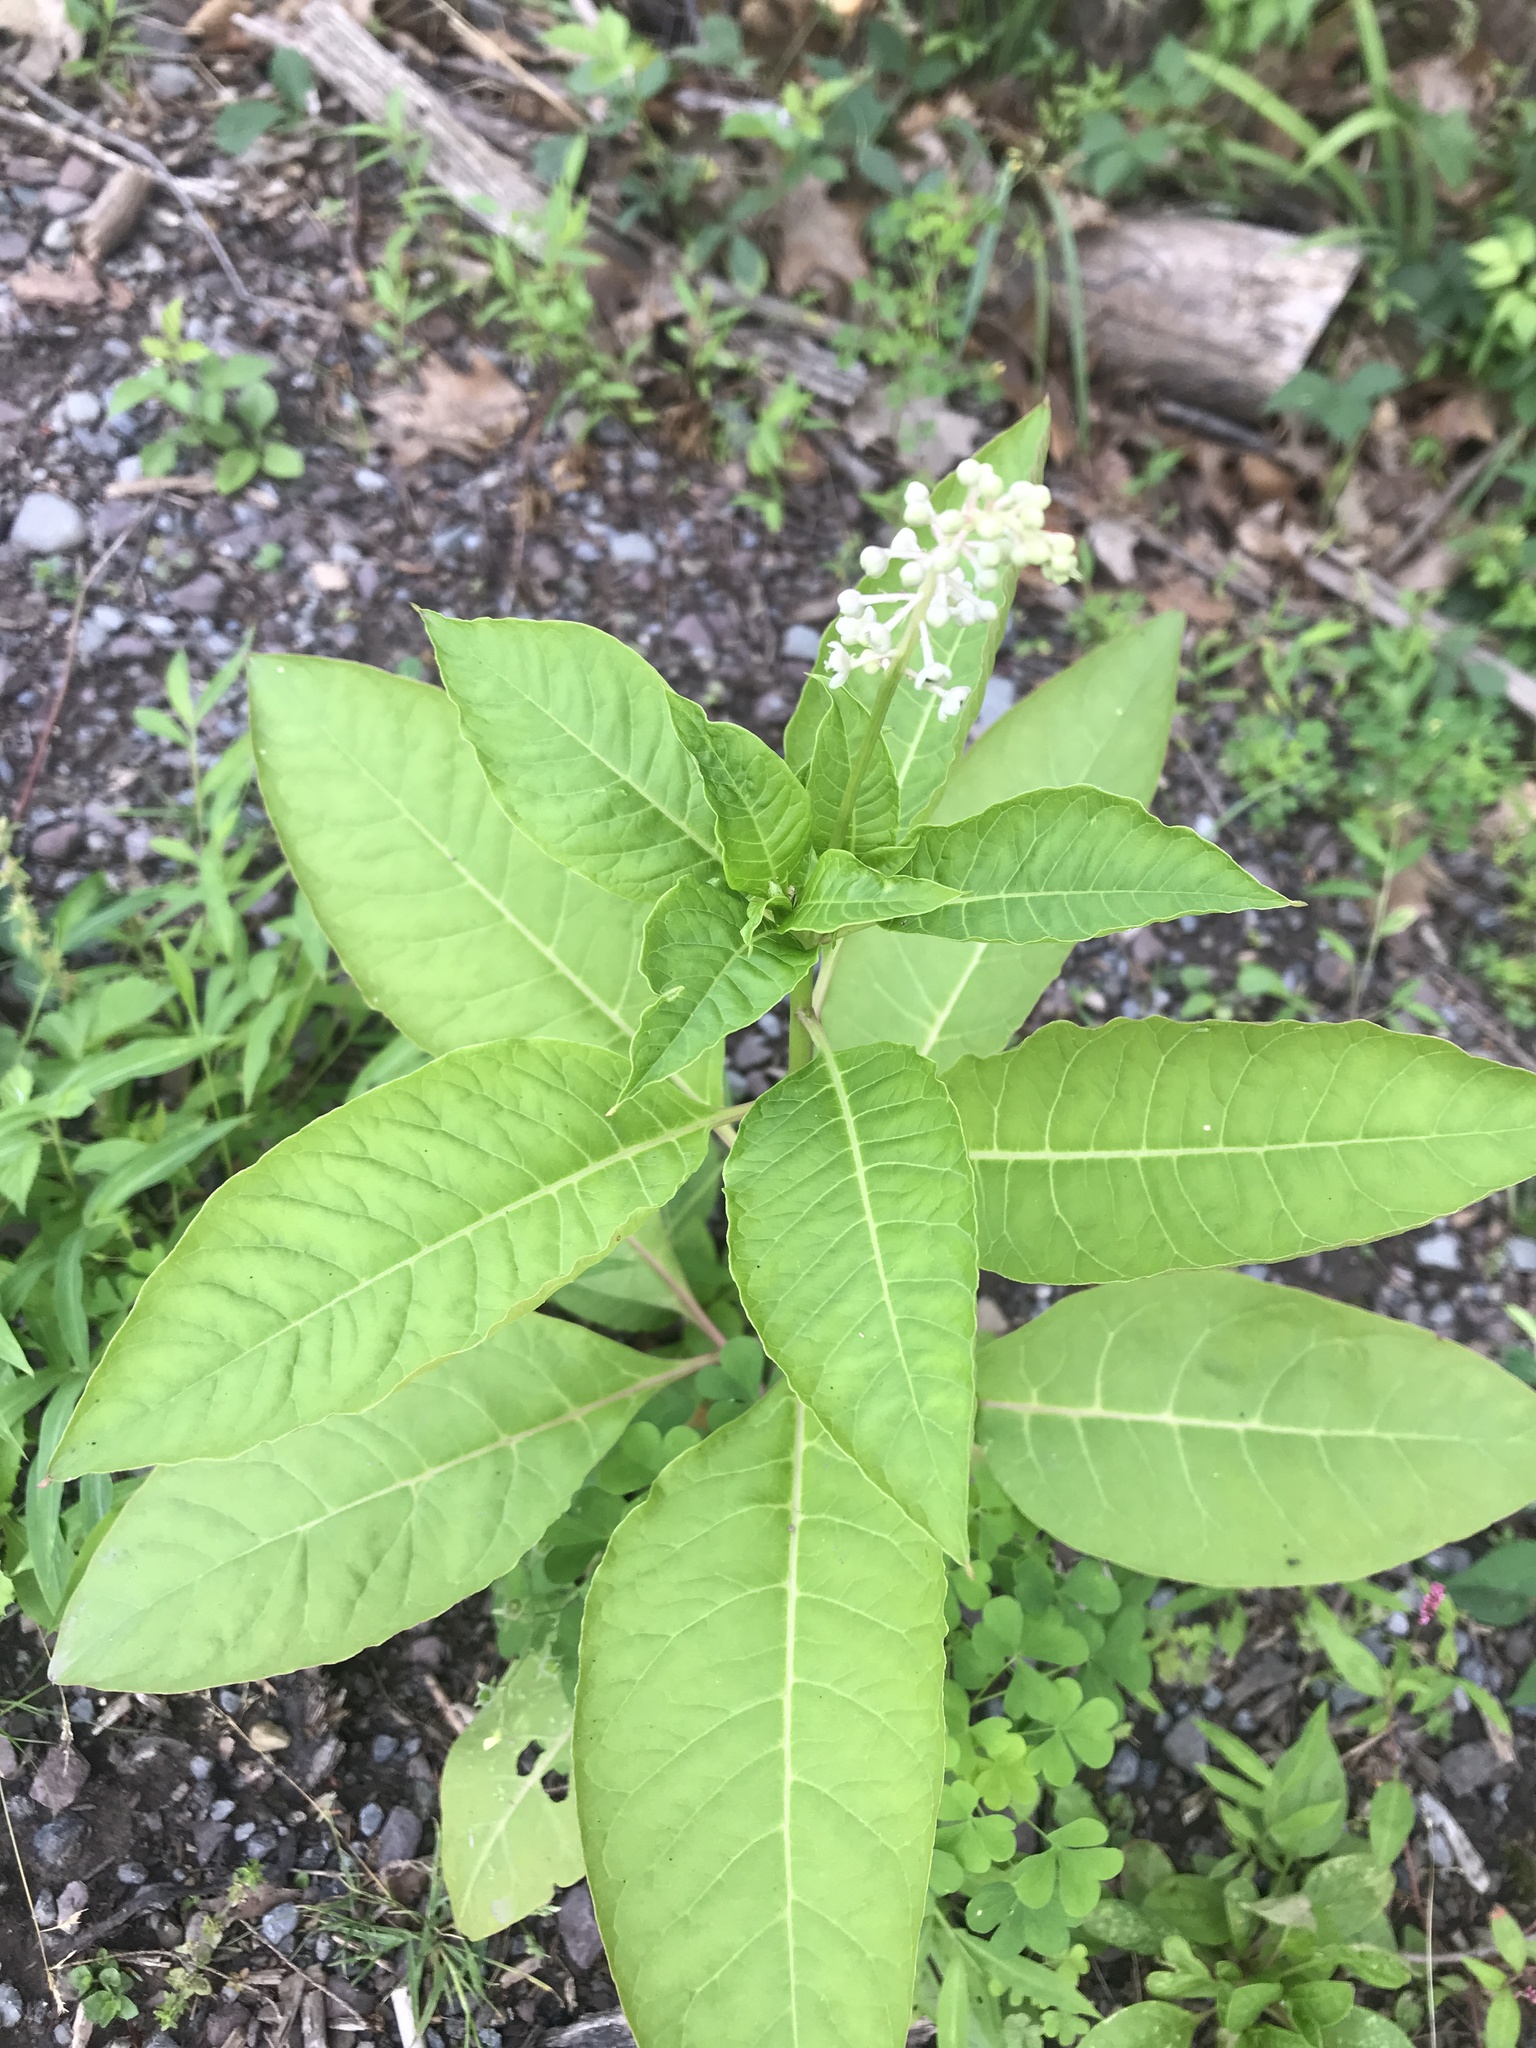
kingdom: Plantae
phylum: Tracheophyta
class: Magnoliopsida
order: Caryophyllales
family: Phytolaccaceae
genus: Phytolacca
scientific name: Phytolacca americana
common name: American pokeweed
